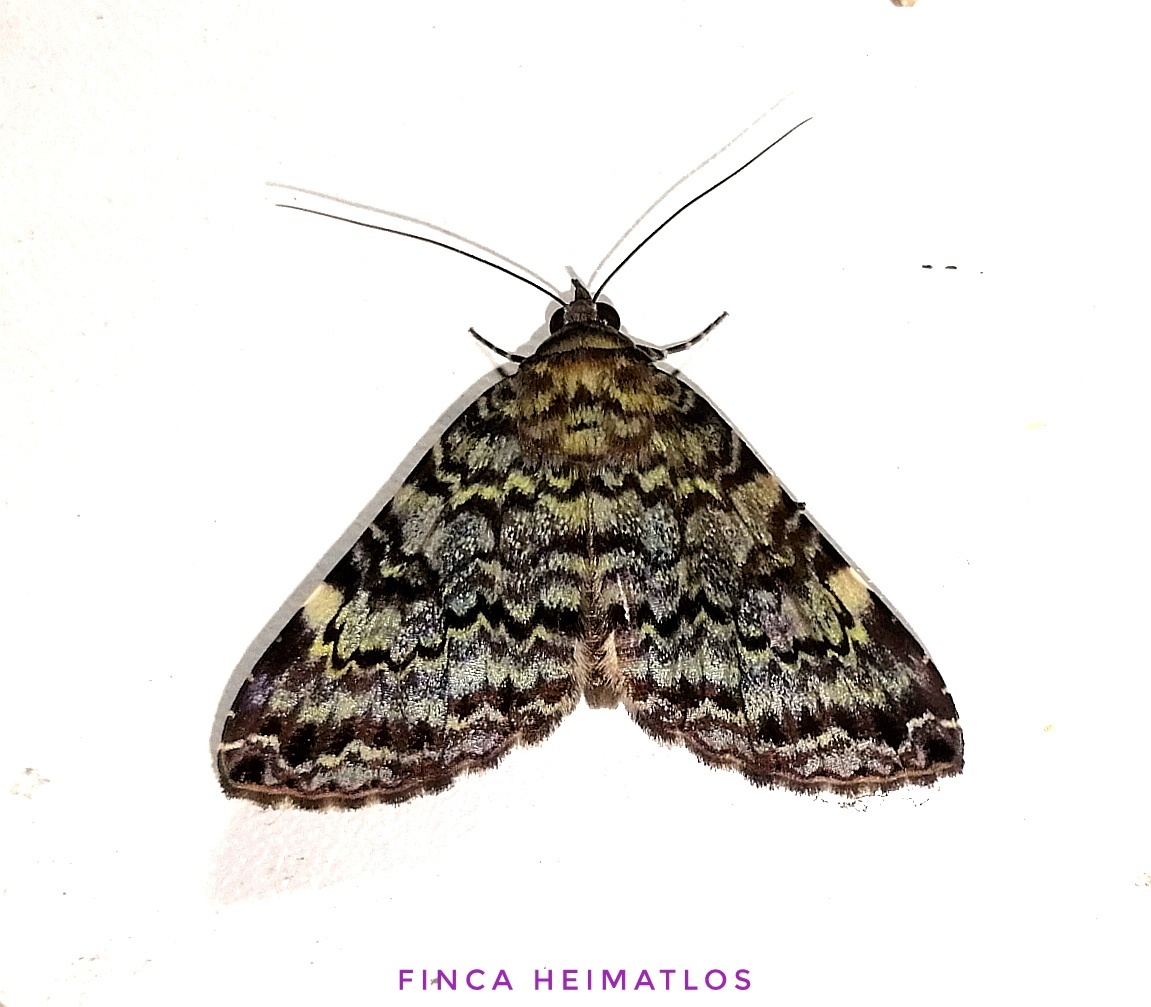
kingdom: Animalia
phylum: Arthropoda
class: Insecta
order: Lepidoptera
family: Erebidae
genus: Acolasis
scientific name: Acolasis Coenipeta polynoe
